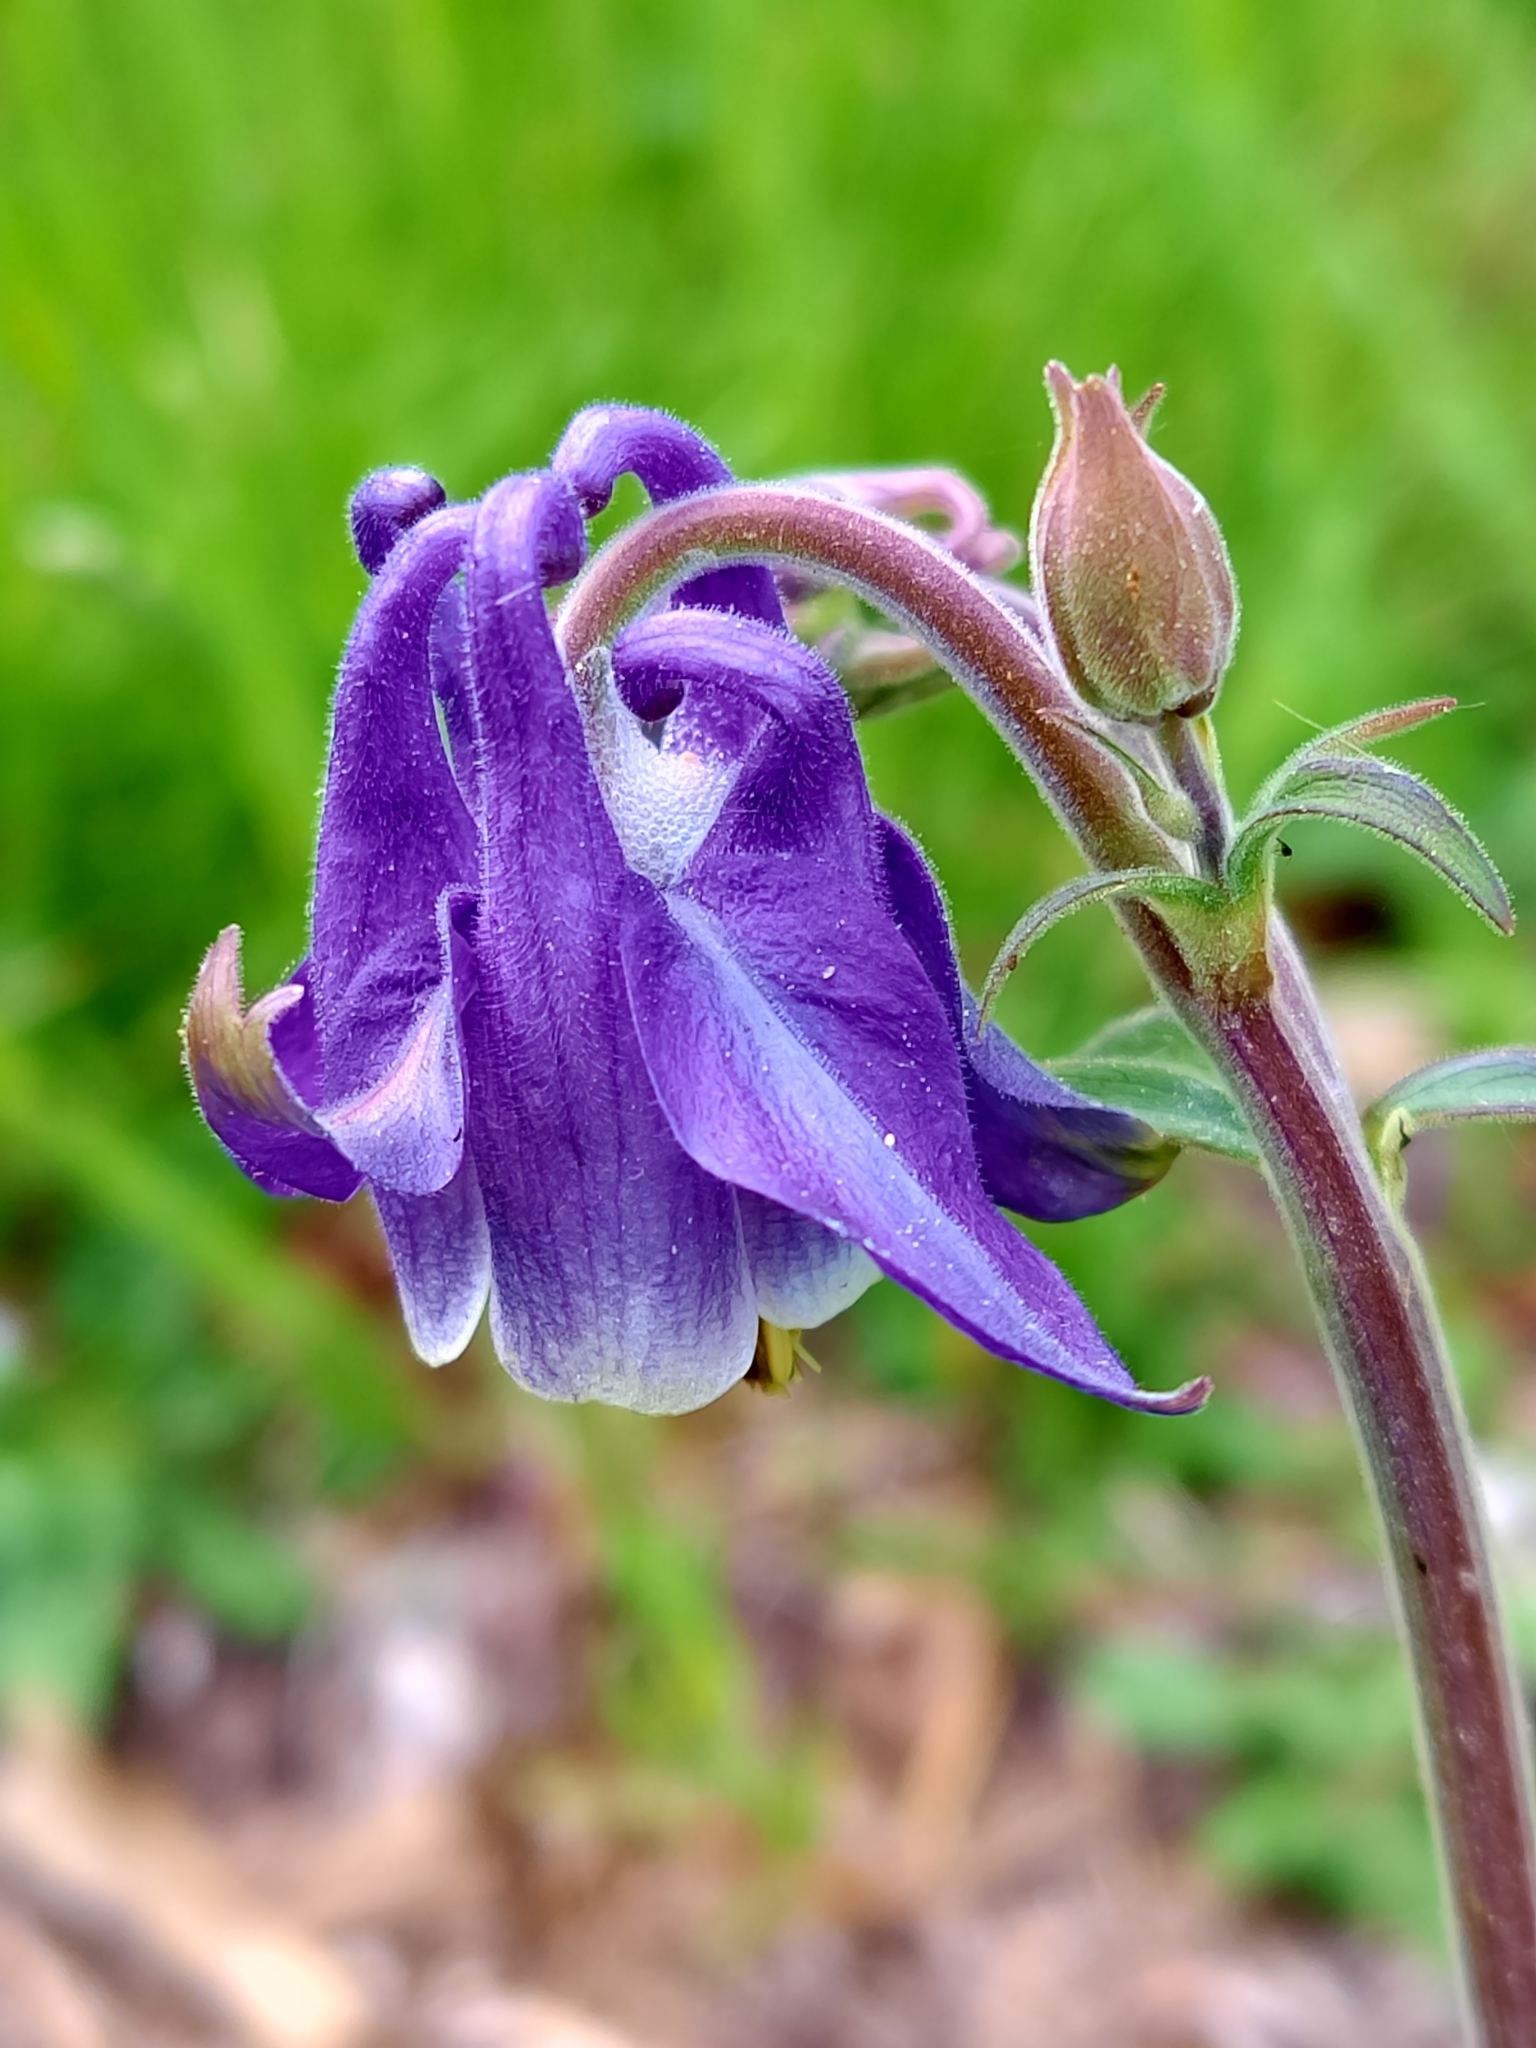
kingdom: Plantae
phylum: Tracheophyta
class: Magnoliopsida
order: Ranunculales
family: Ranunculaceae
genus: Aquilegia
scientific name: Aquilegia vulgaris
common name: Columbine
